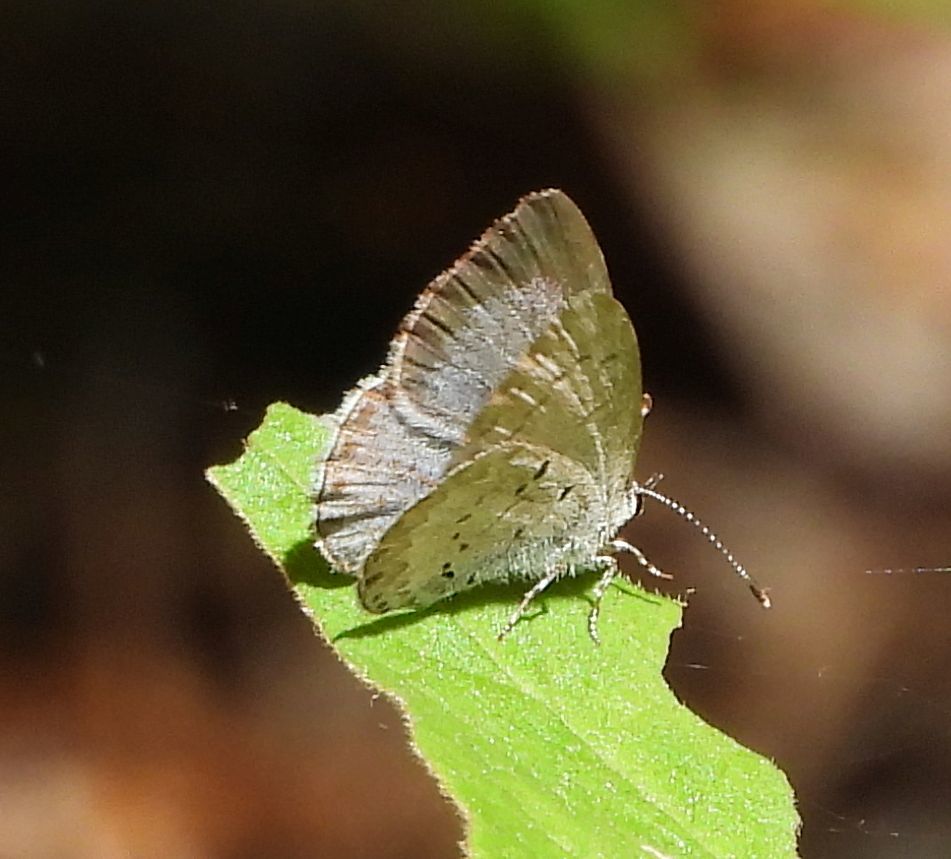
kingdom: Animalia
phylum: Arthropoda
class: Insecta
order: Lepidoptera
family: Lycaenidae
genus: Celastrina
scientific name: Celastrina lucia
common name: Lucia azure
